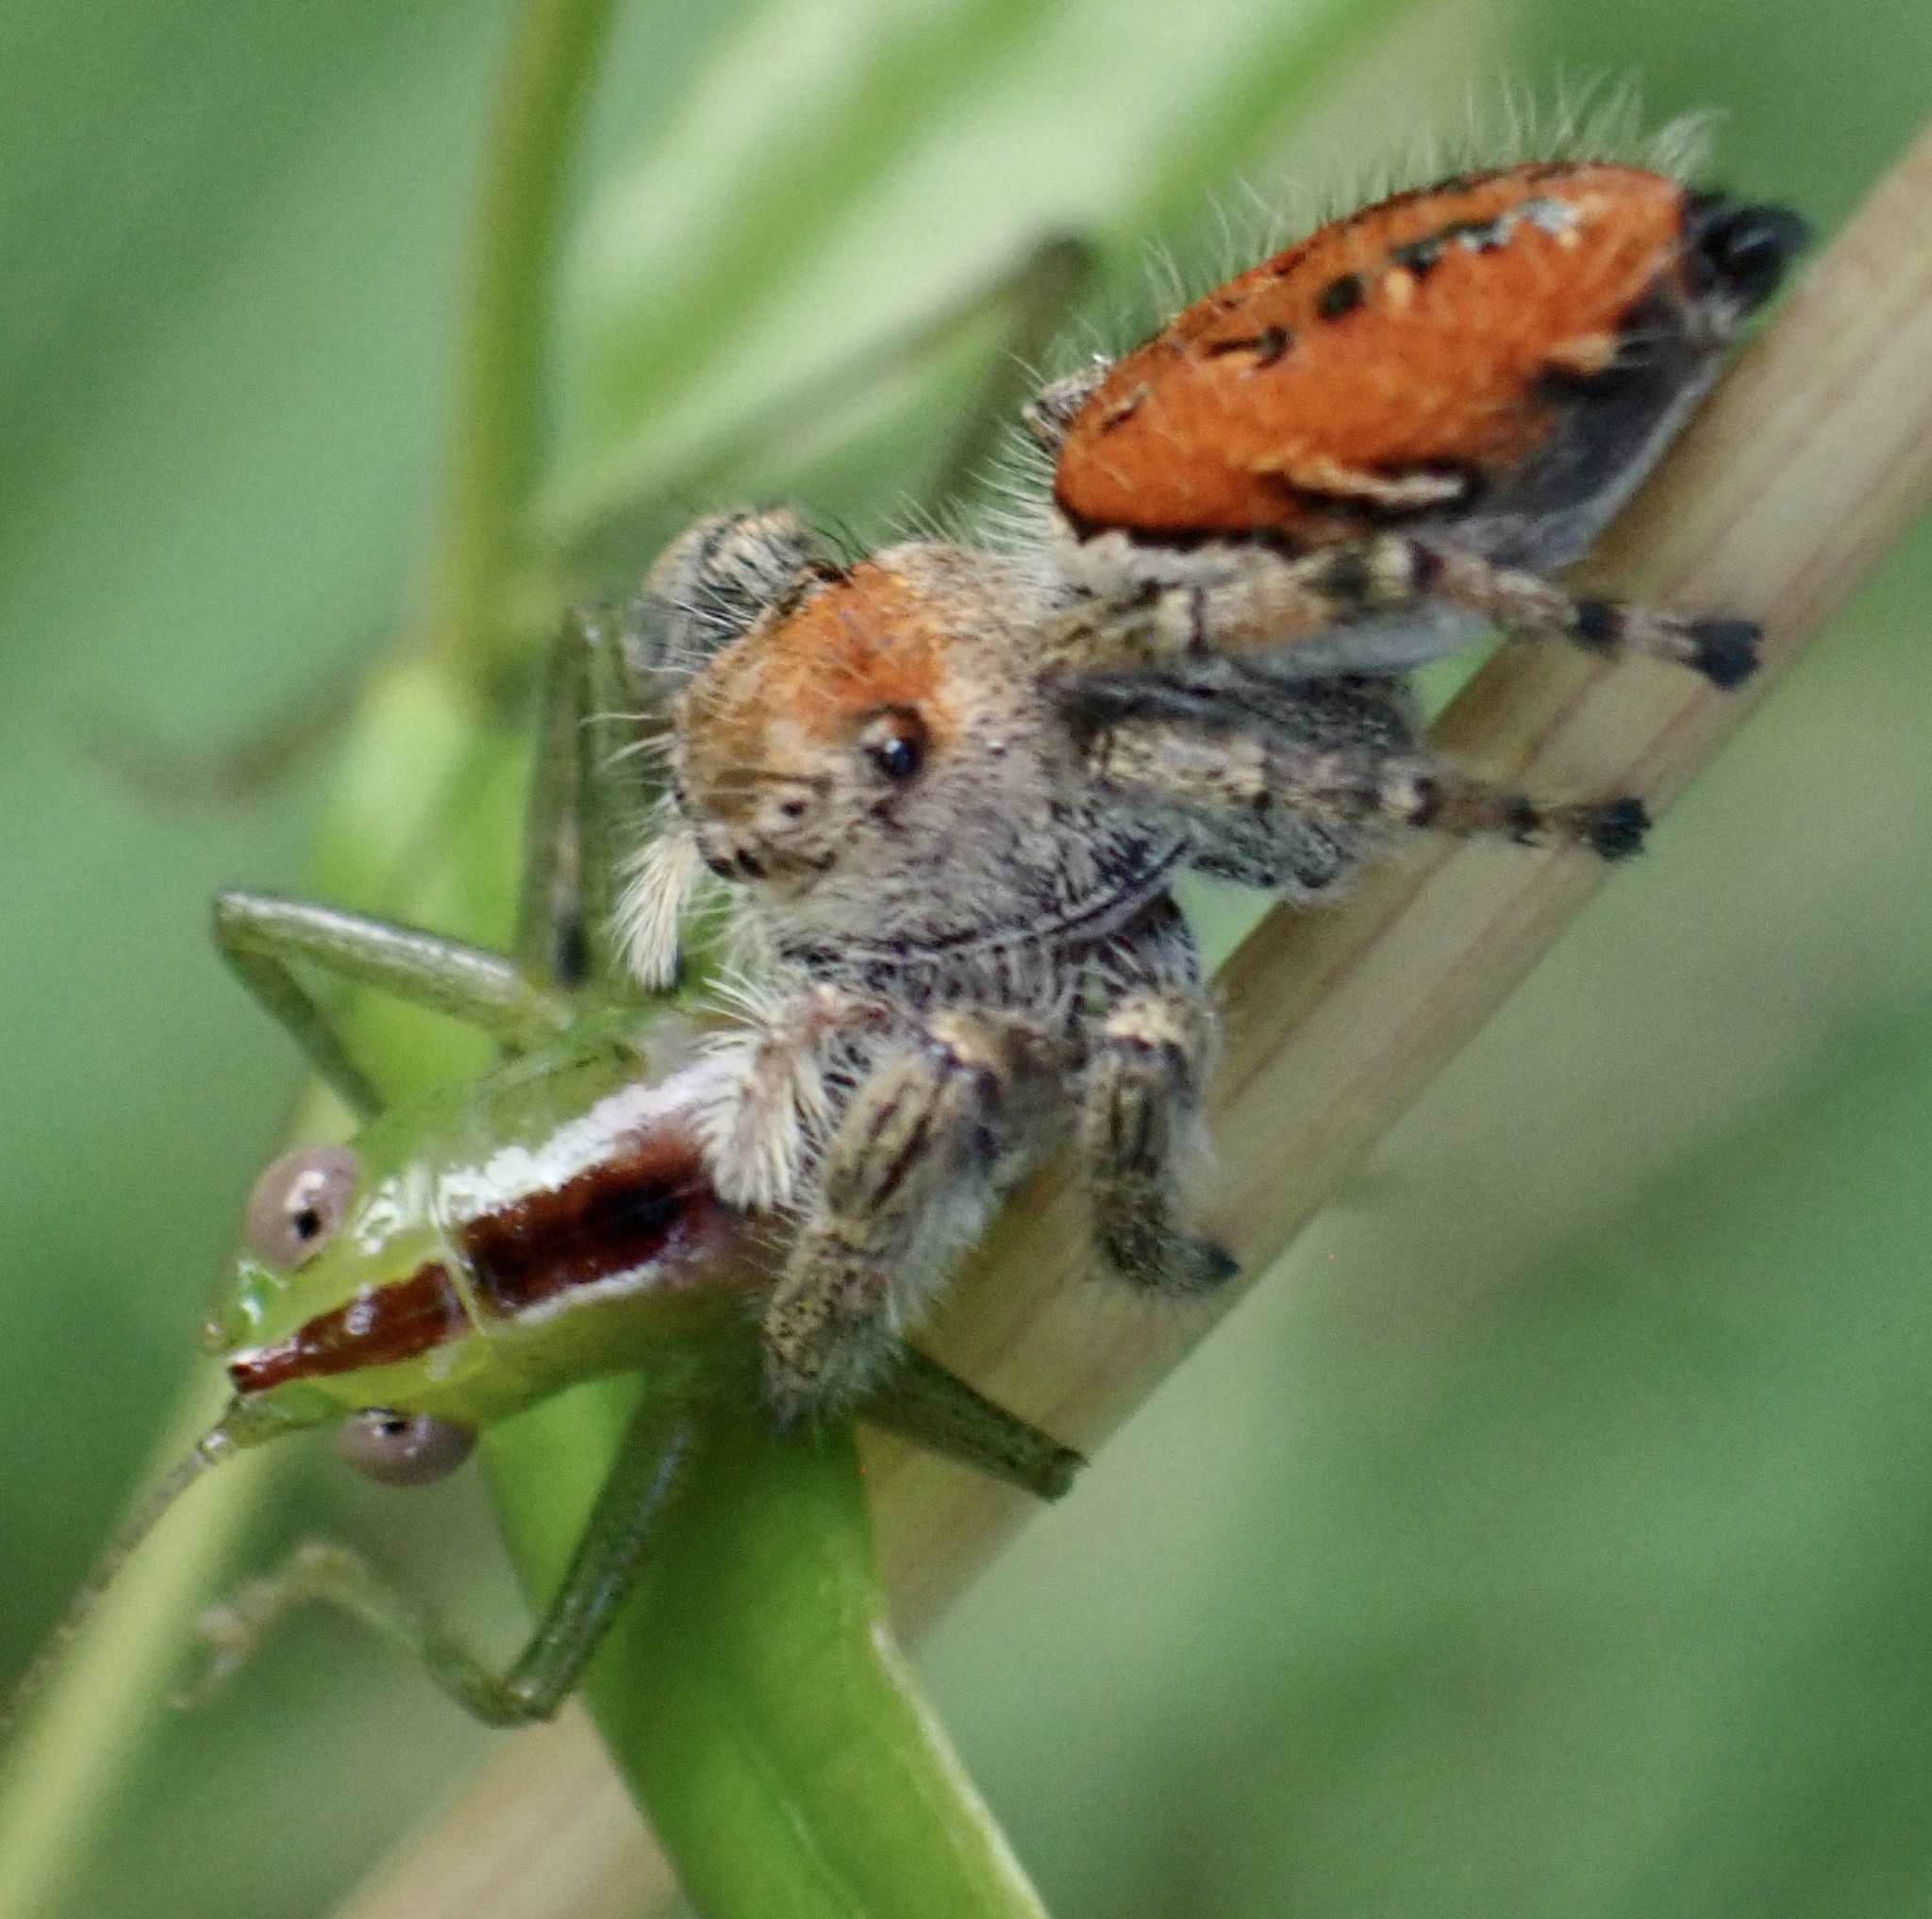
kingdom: Animalia
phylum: Arthropoda
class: Arachnida
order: Araneae
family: Salticidae
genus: Phidippus
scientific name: Phidippus clarus
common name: Brilliant jumping spider
